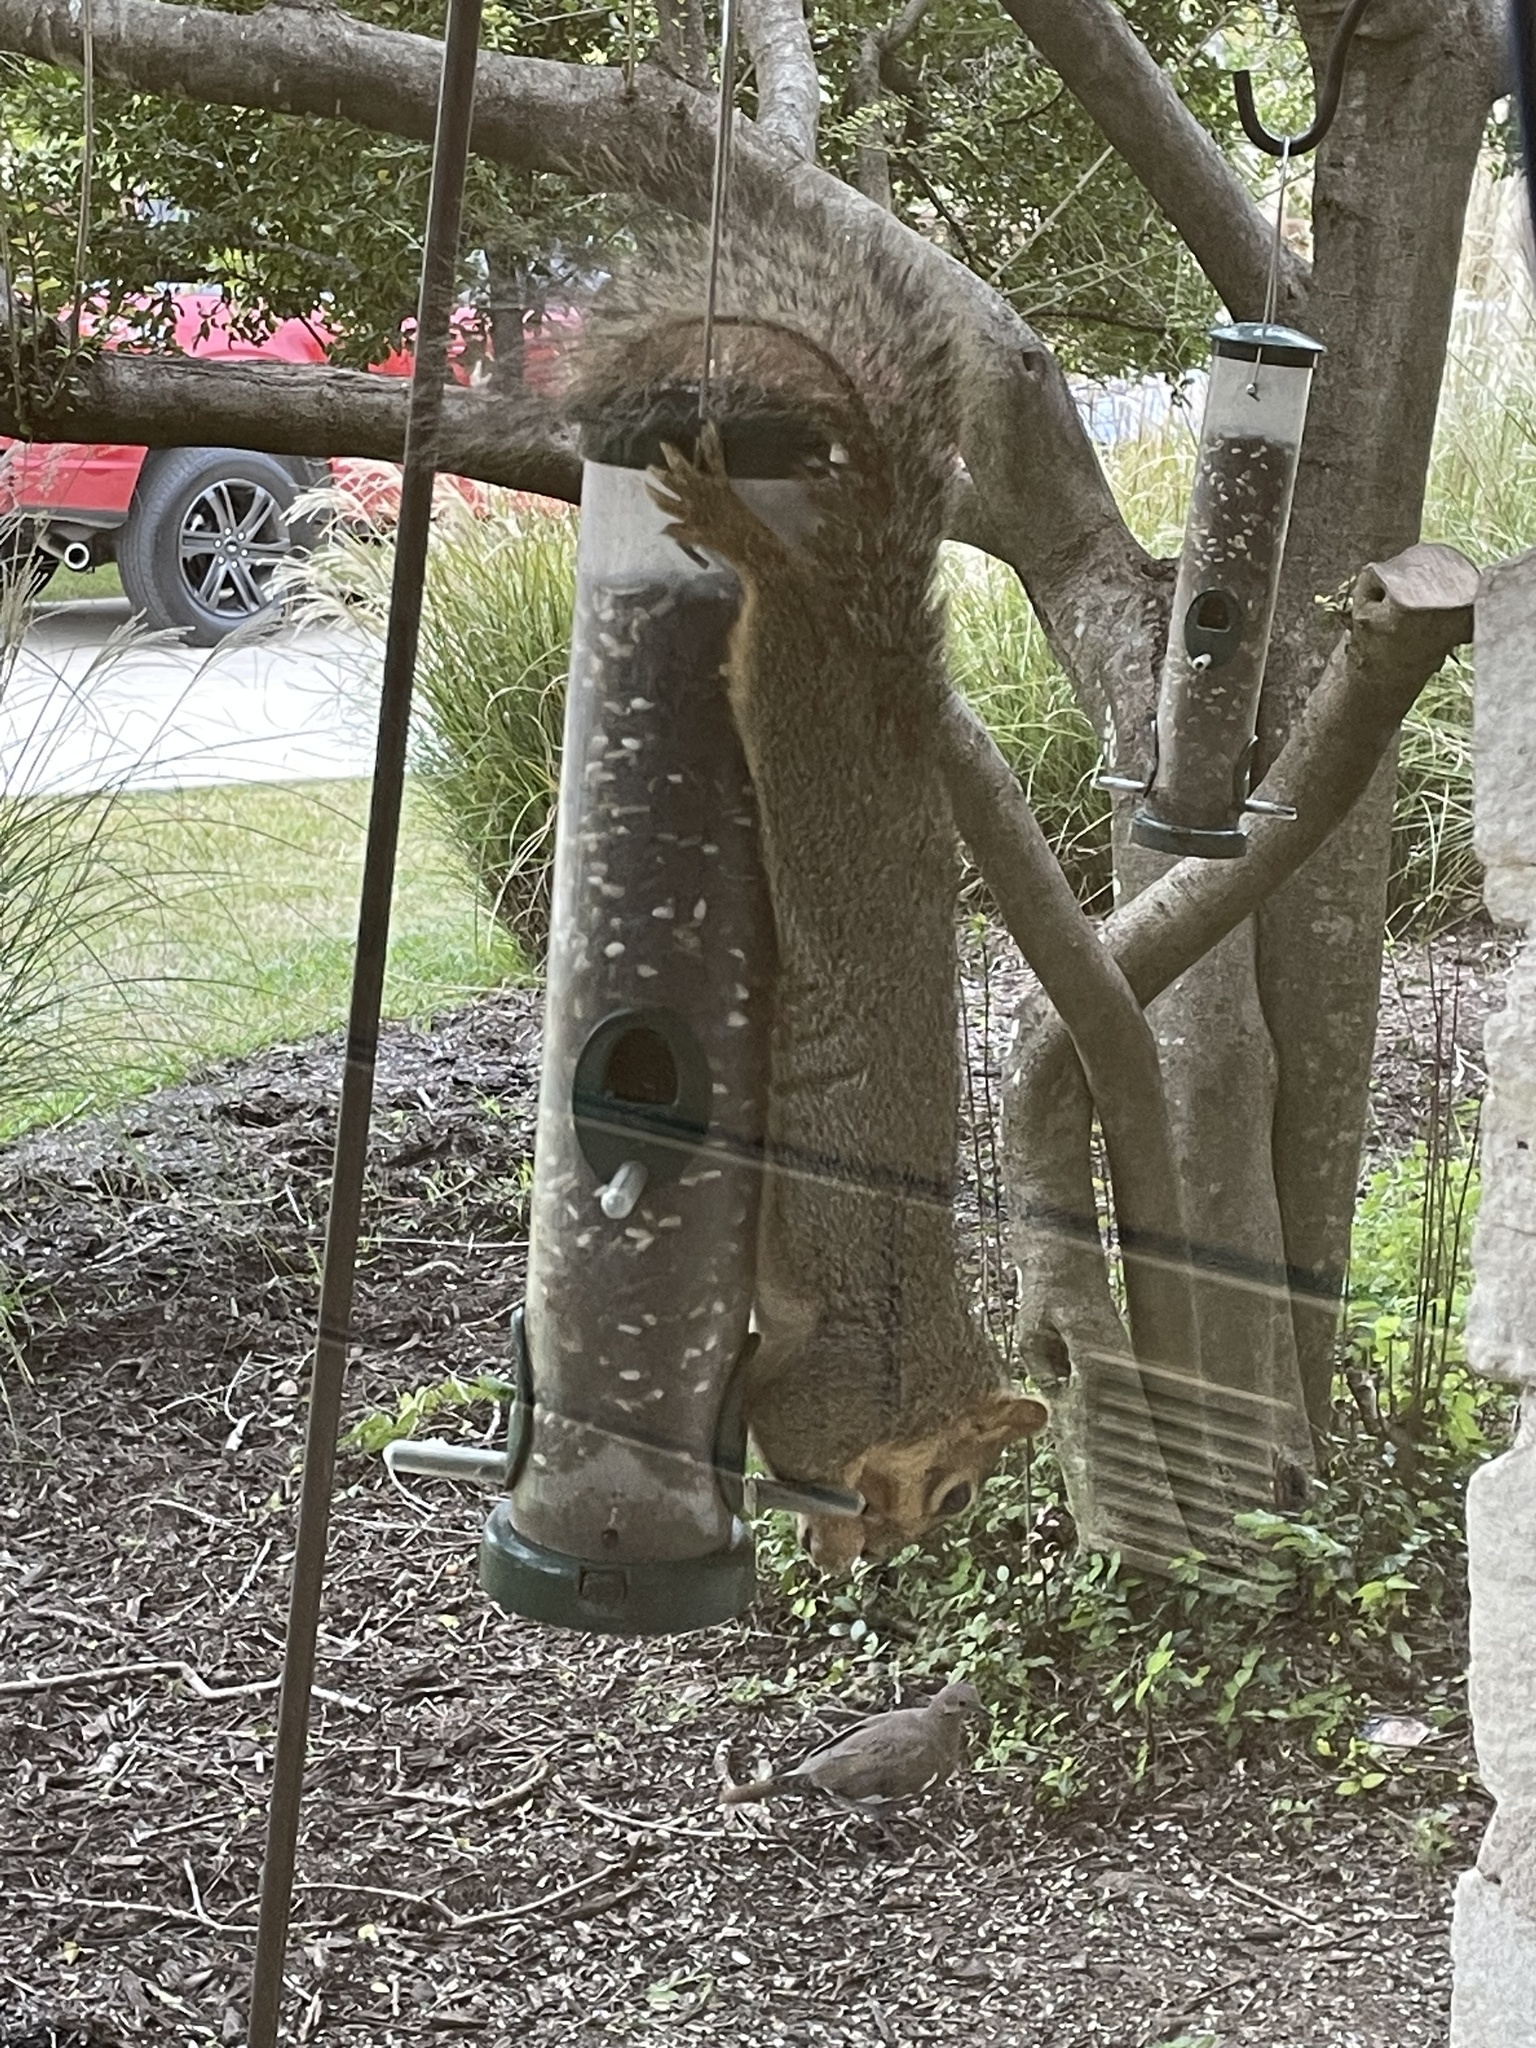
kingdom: Animalia
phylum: Chordata
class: Mammalia
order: Rodentia
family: Sciuridae
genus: Sciurus
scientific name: Sciurus niger
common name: Fox squirrel
